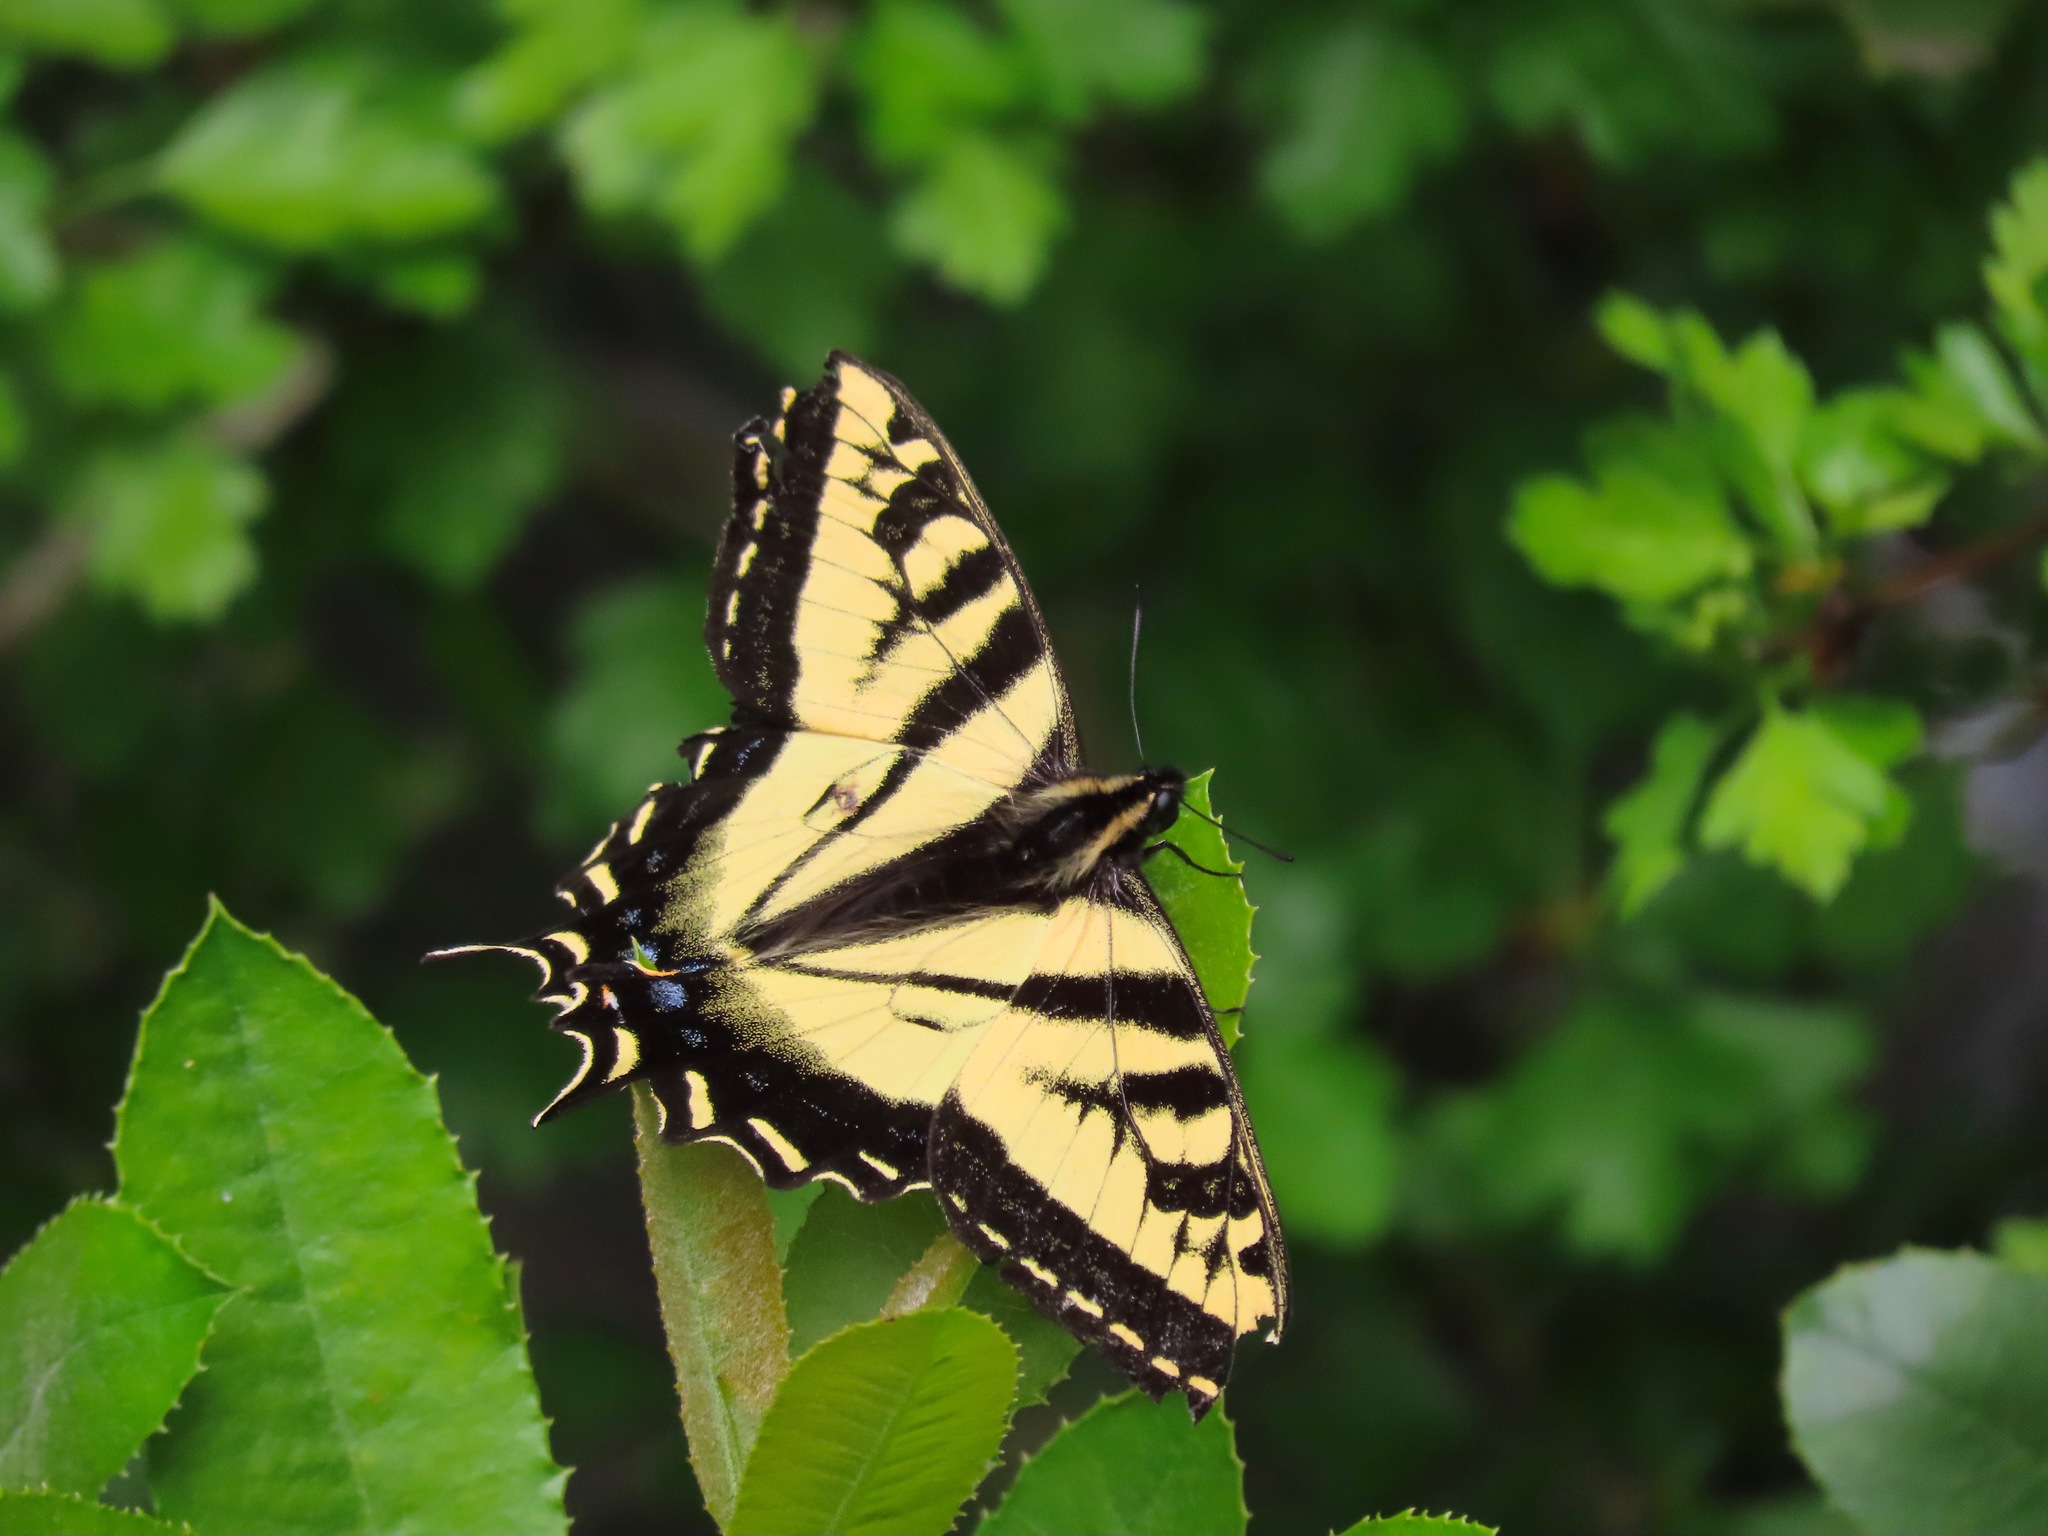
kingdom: Animalia
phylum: Arthropoda
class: Insecta
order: Lepidoptera
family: Papilionidae
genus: Papilio
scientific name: Papilio rutulus
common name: Western tiger swallowtail
